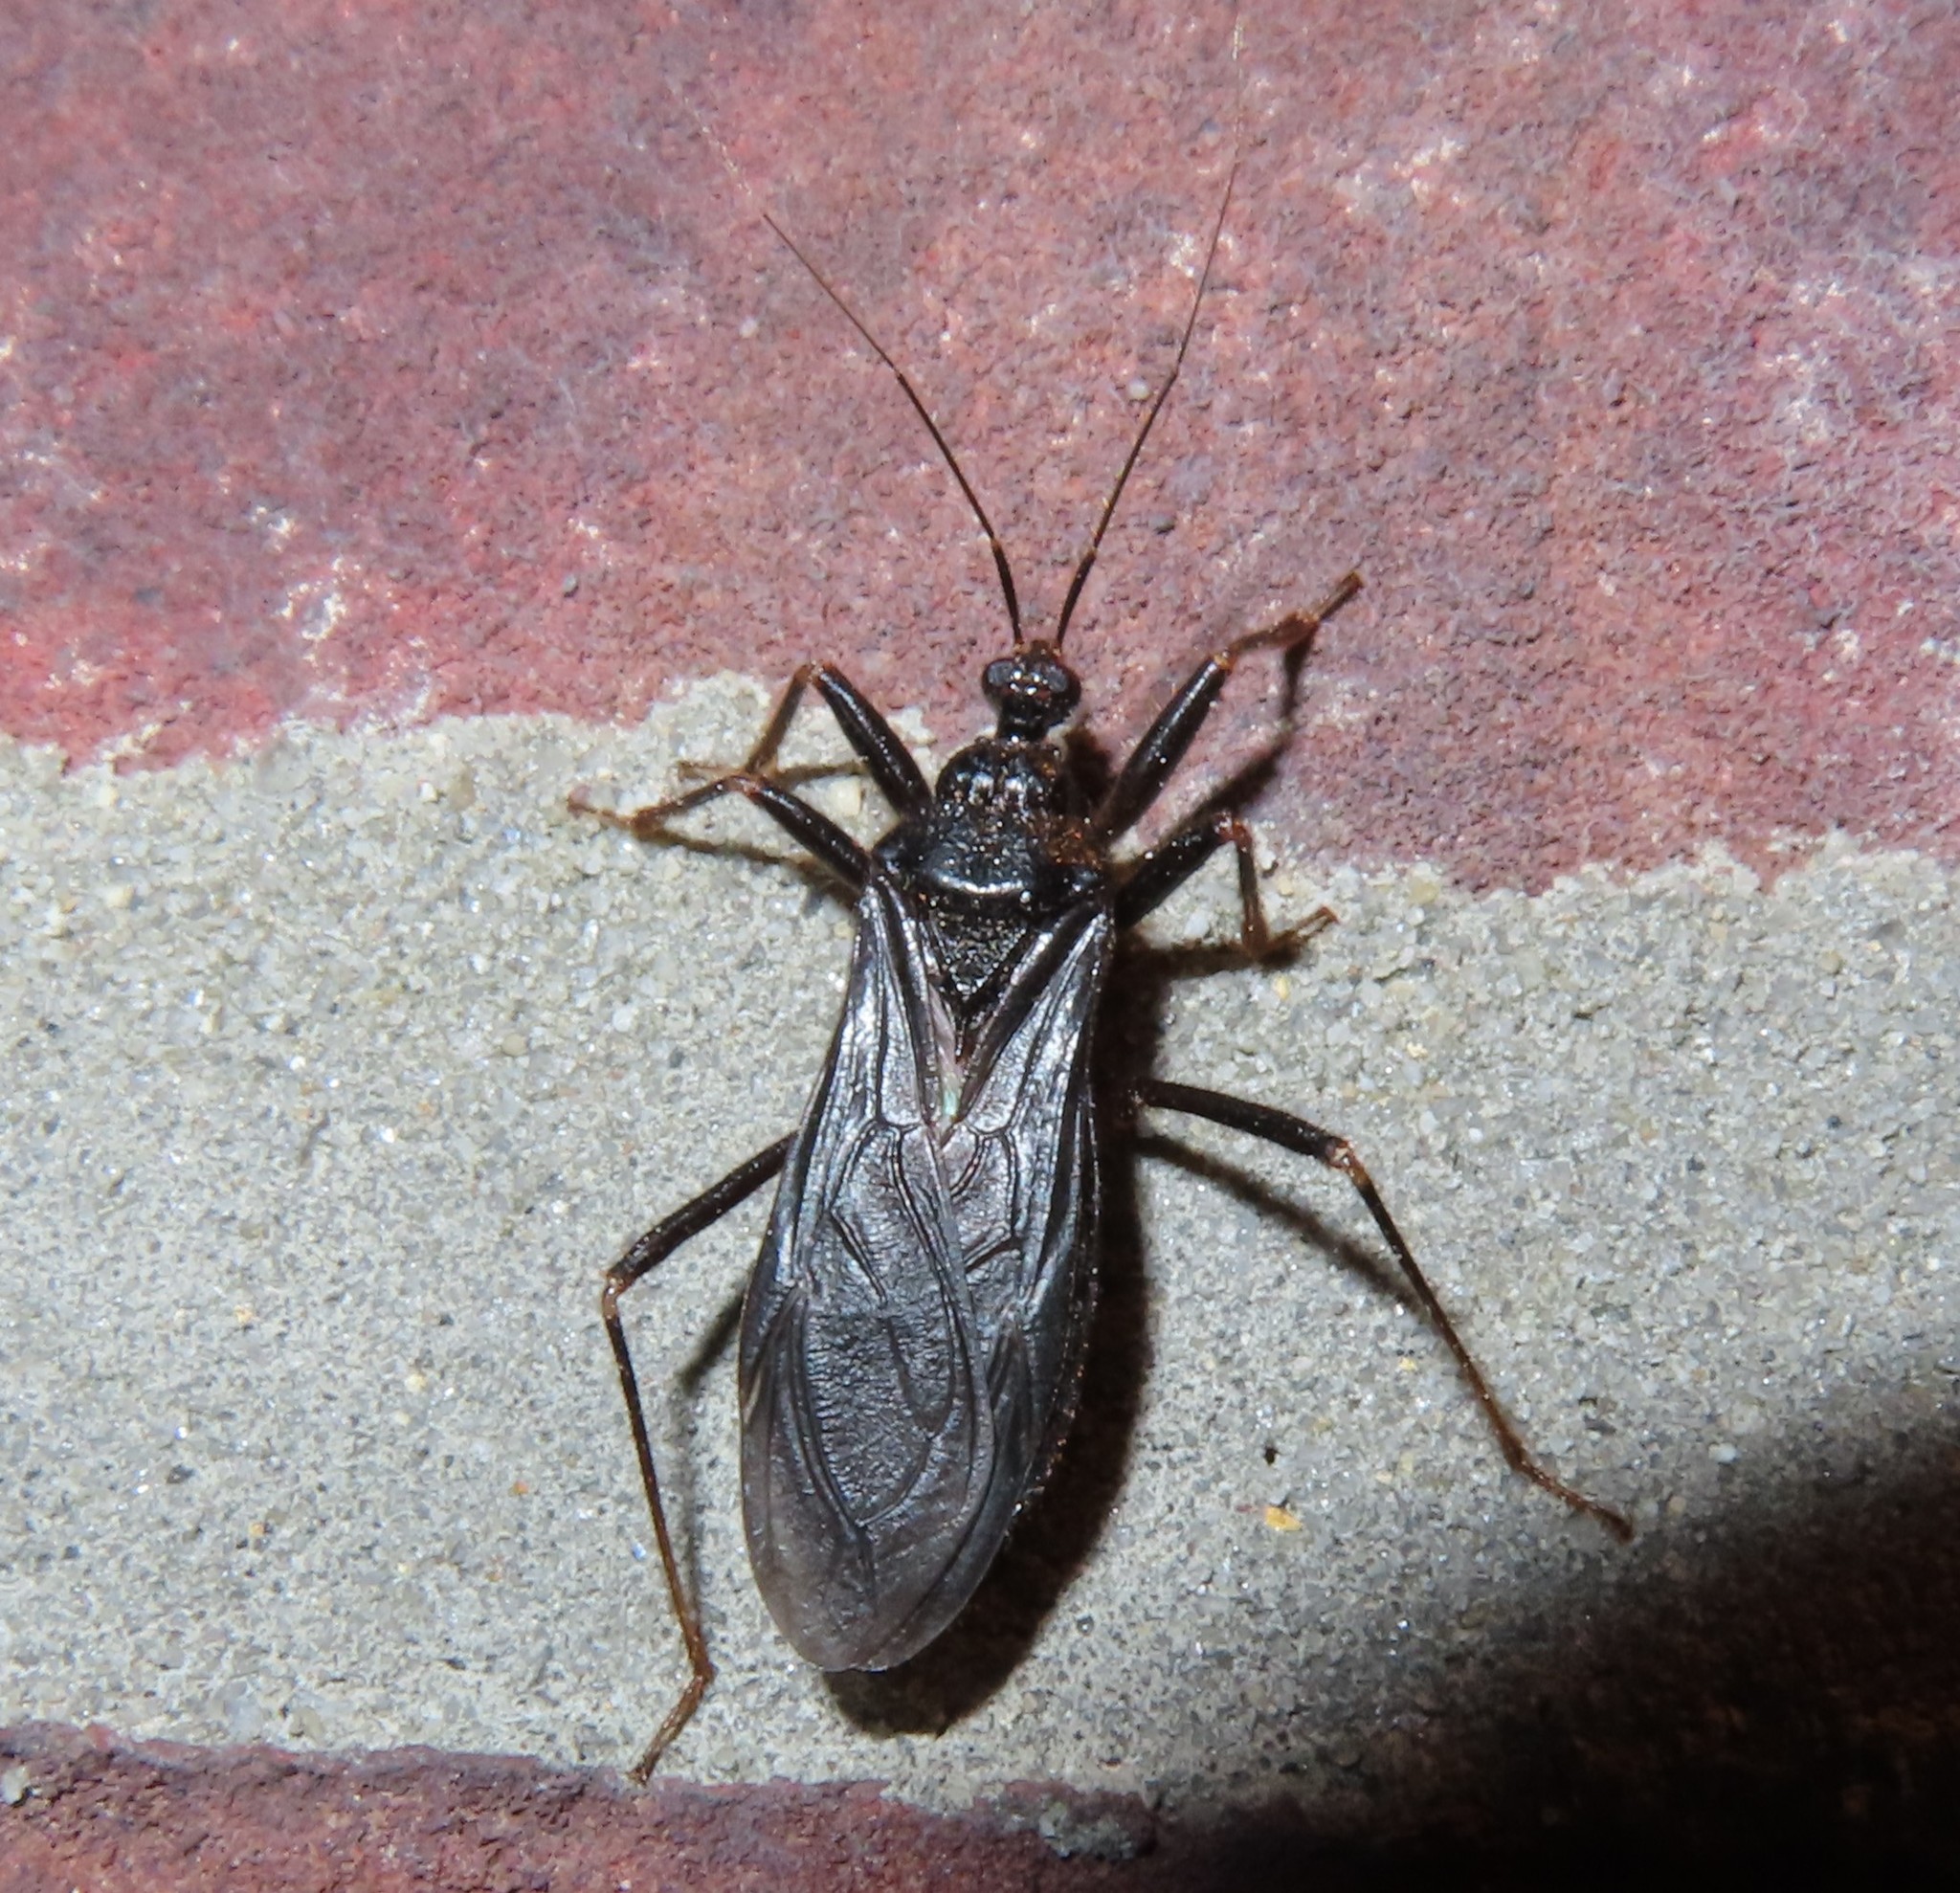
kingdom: Animalia
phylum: Arthropoda
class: Insecta
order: Hemiptera
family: Reduviidae
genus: Reduvius
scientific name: Reduvius personatus
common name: Masked hunter
